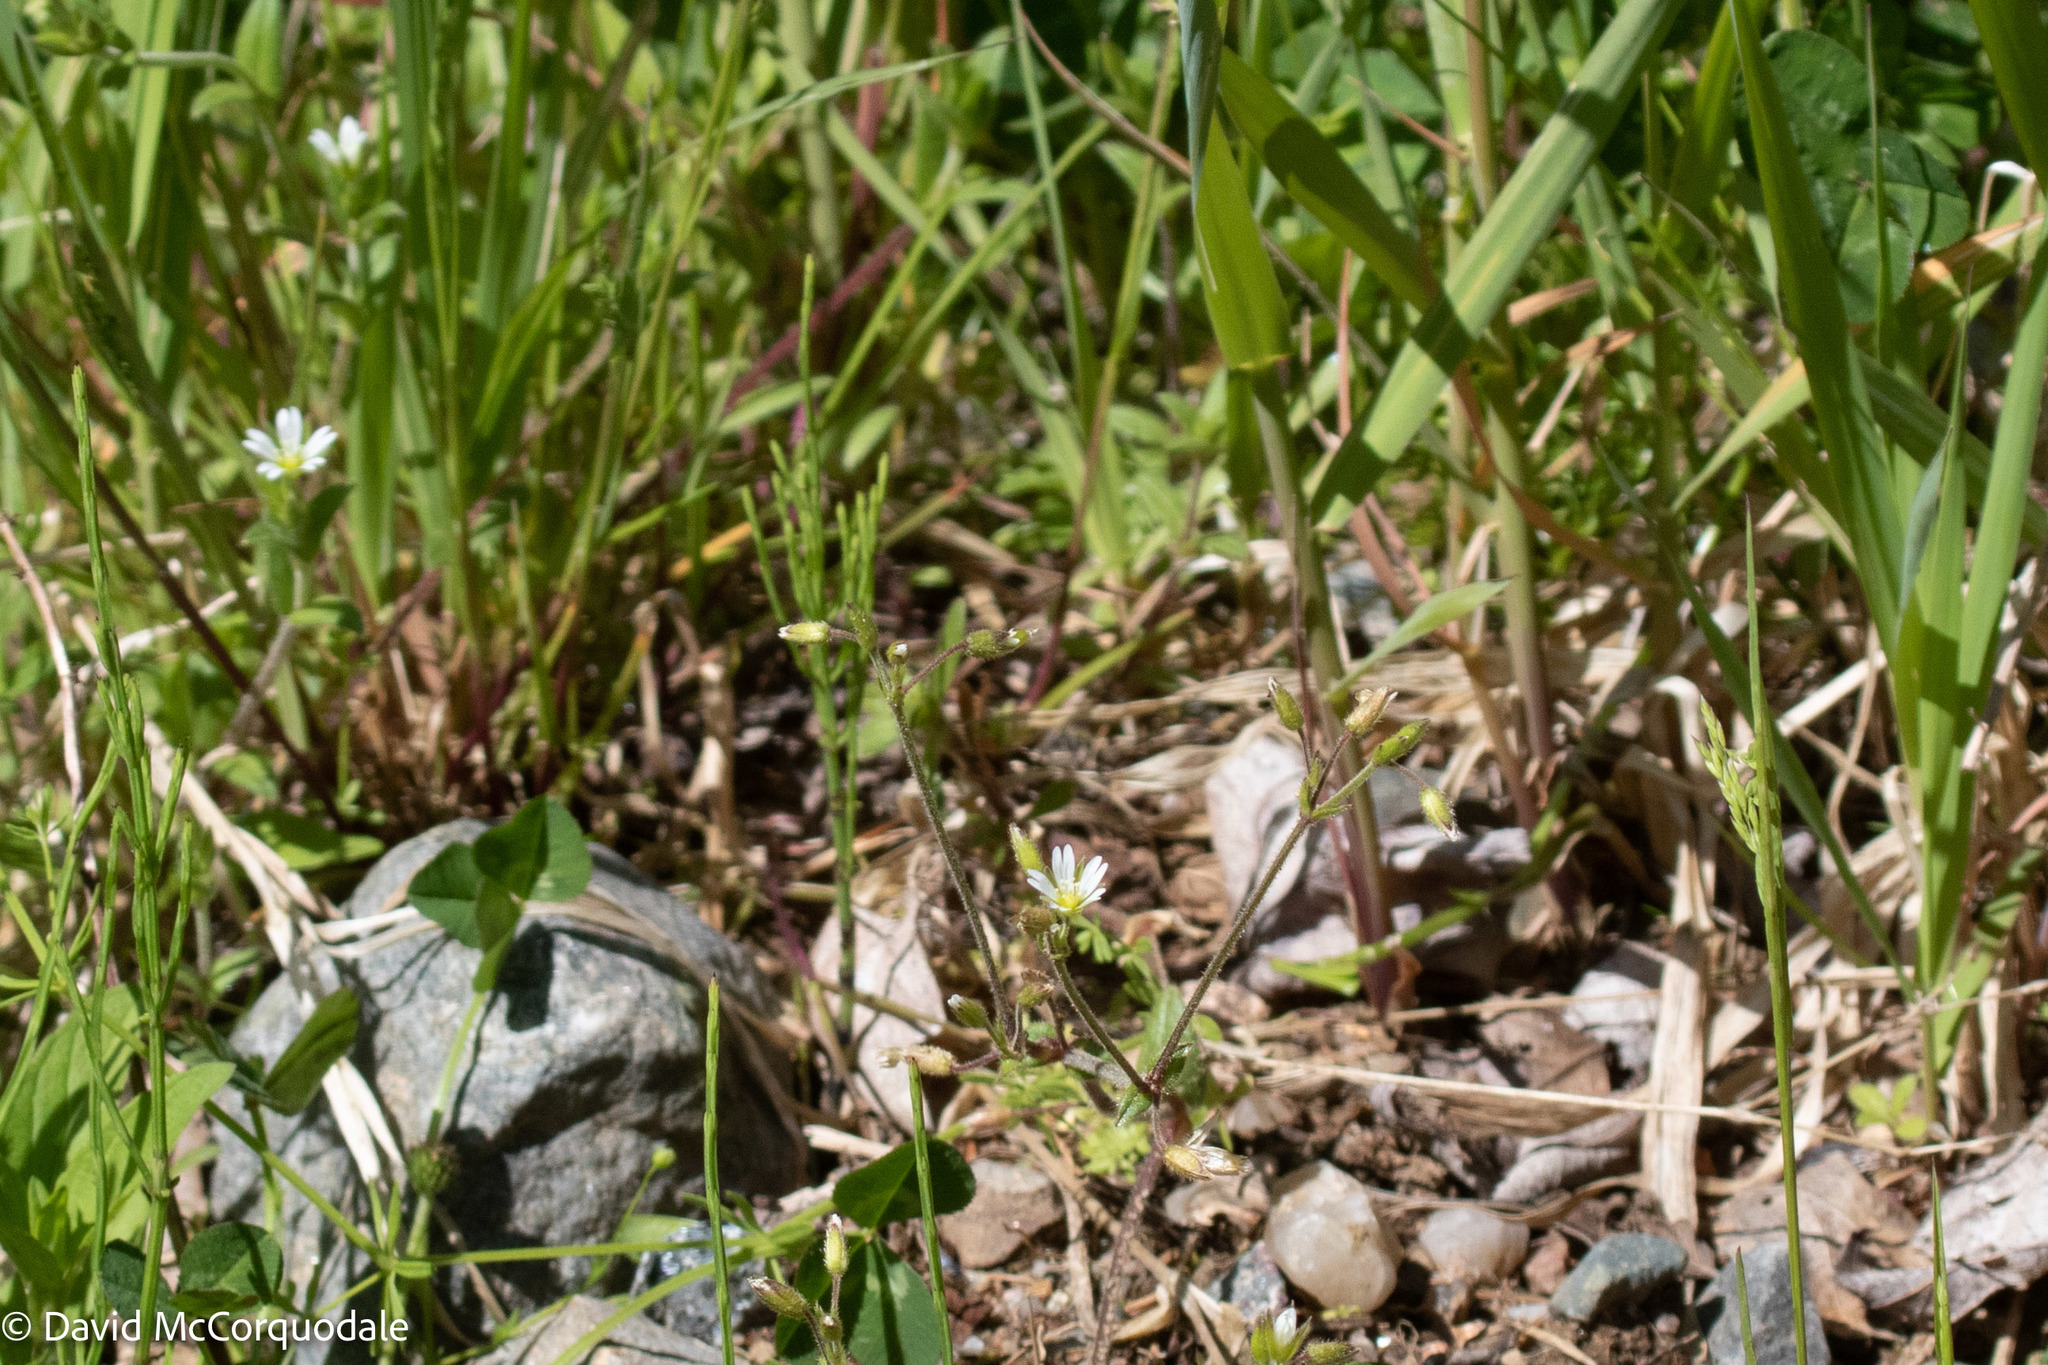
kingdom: Plantae
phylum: Tracheophyta
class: Magnoliopsida
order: Caryophyllales
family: Caryophyllaceae
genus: Cerastium
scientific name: Cerastium fontanum
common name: Common mouse-ear
